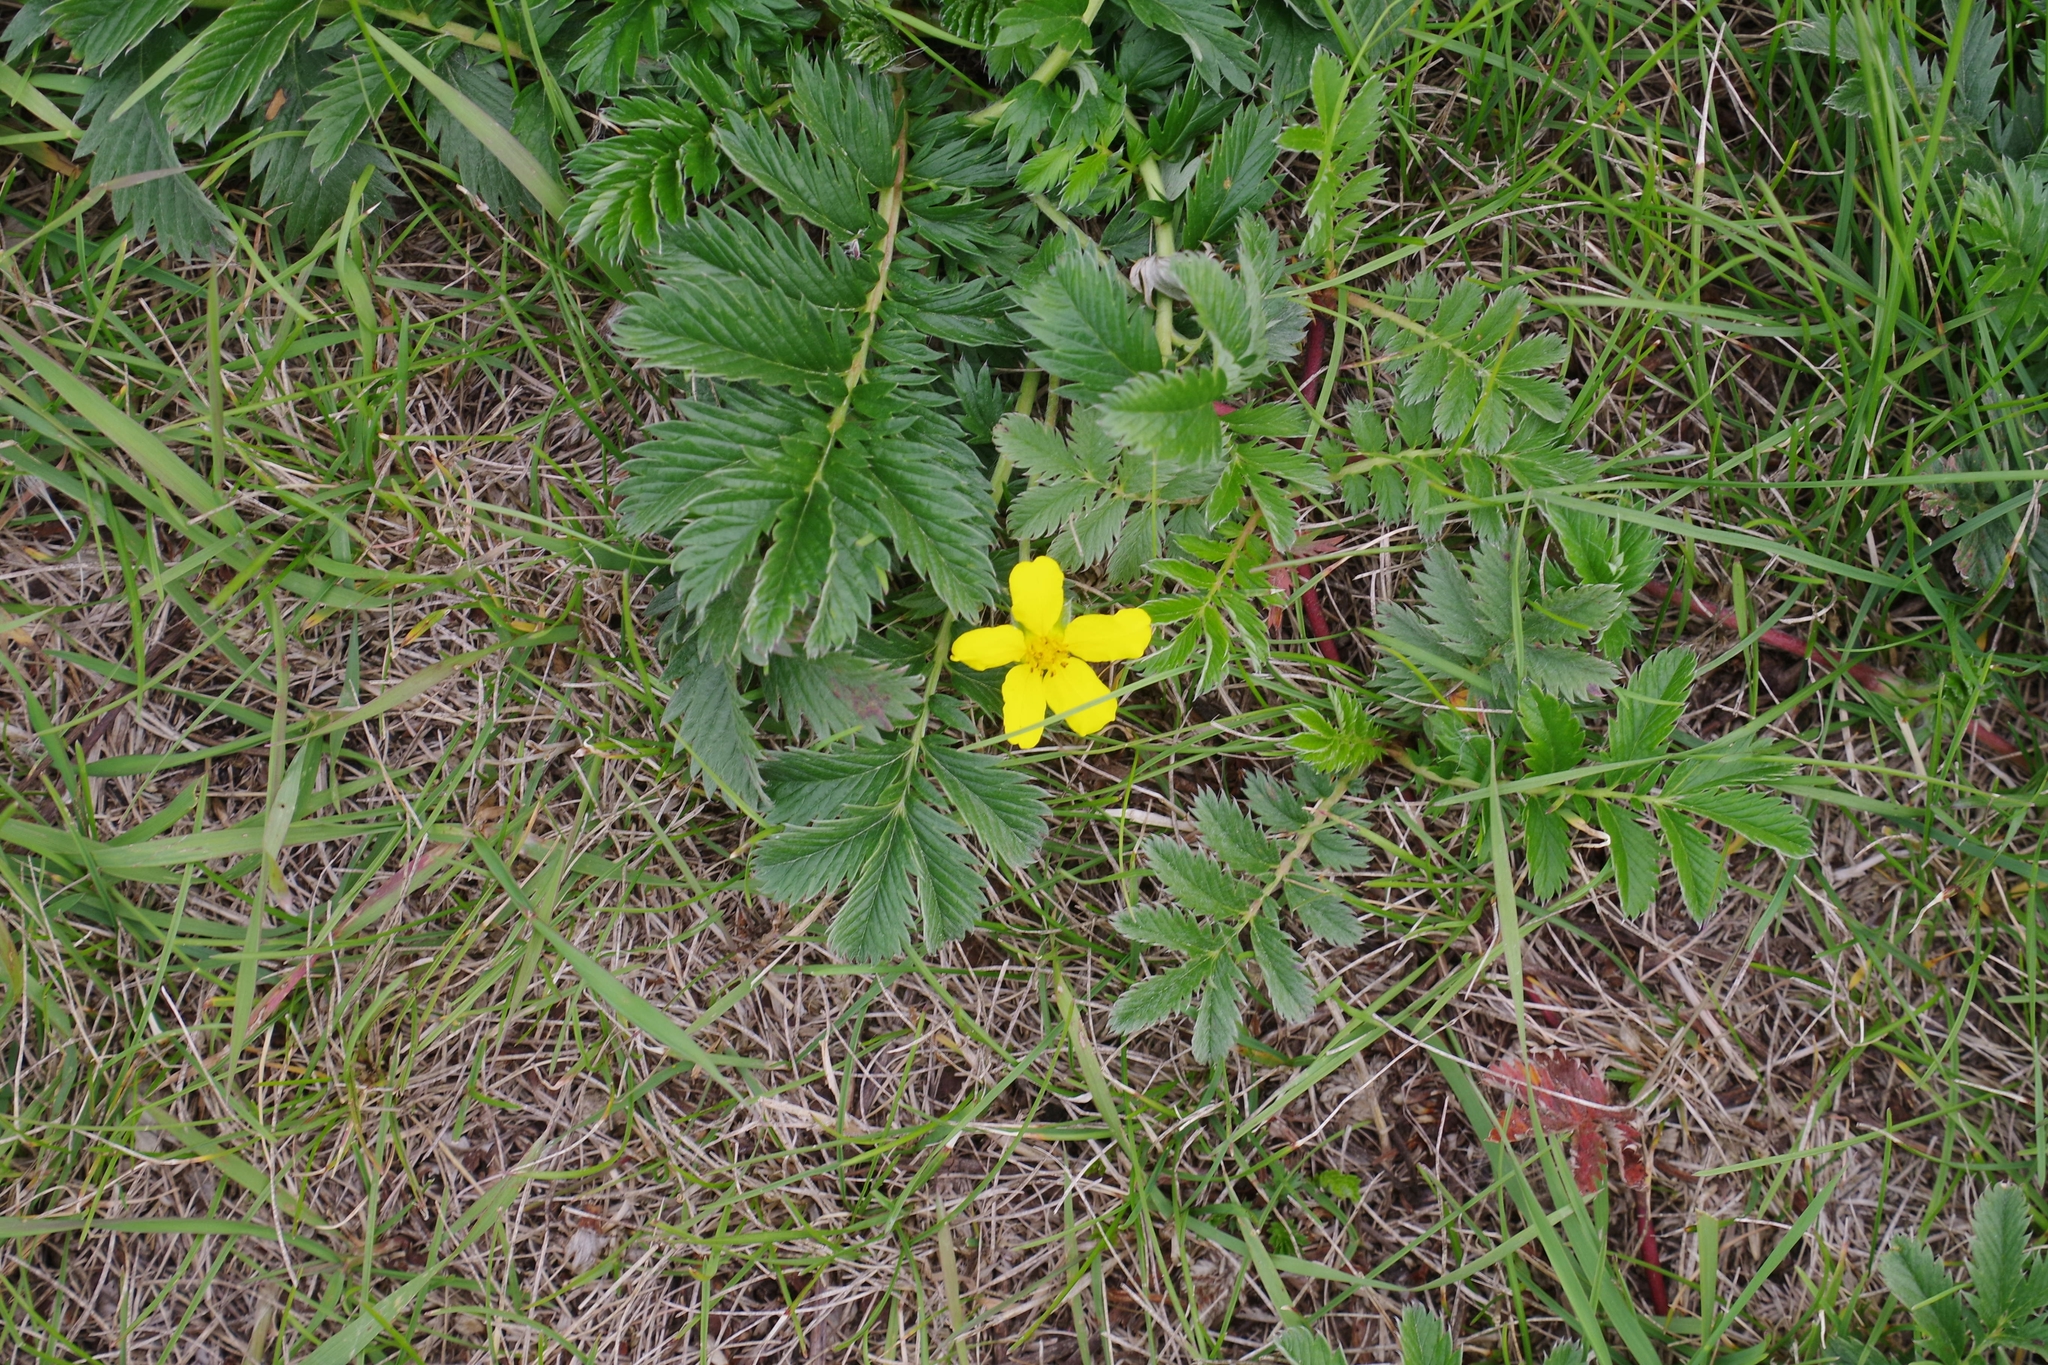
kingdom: Plantae
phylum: Tracheophyta
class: Magnoliopsida
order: Rosales
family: Rosaceae
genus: Argentina
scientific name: Argentina anserina
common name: Common silverweed
